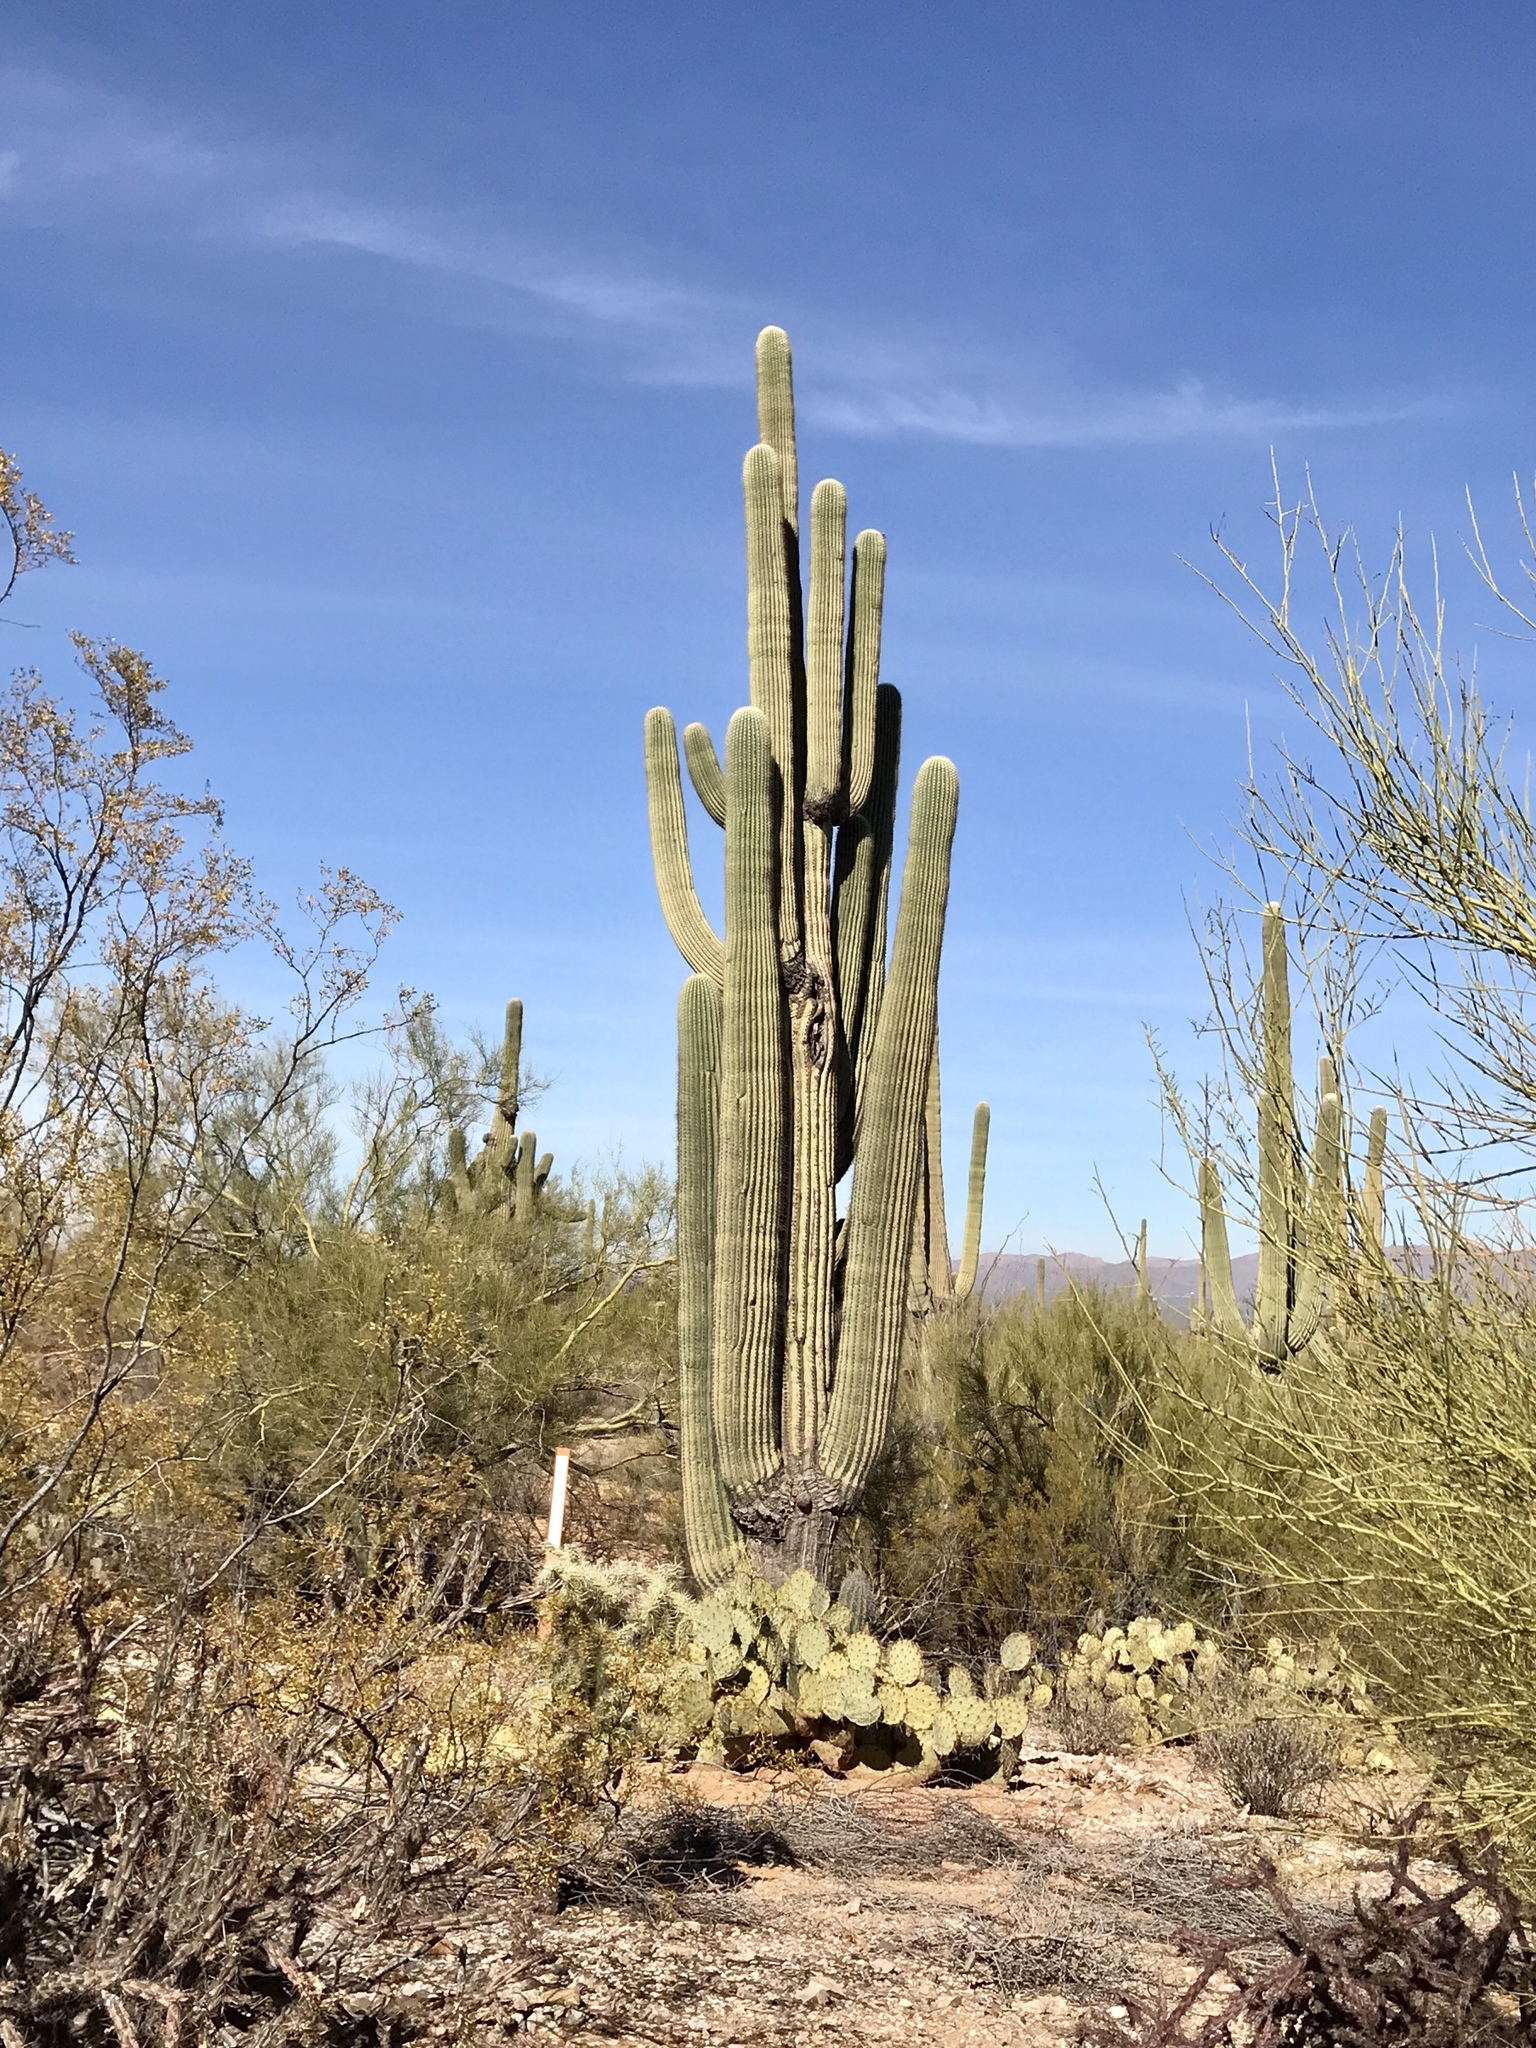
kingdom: Plantae
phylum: Tracheophyta
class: Magnoliopsida
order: Caryophyllales
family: Cactaceae
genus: Carnegiea
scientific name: Carnegiea gigantea
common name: Saguaro
